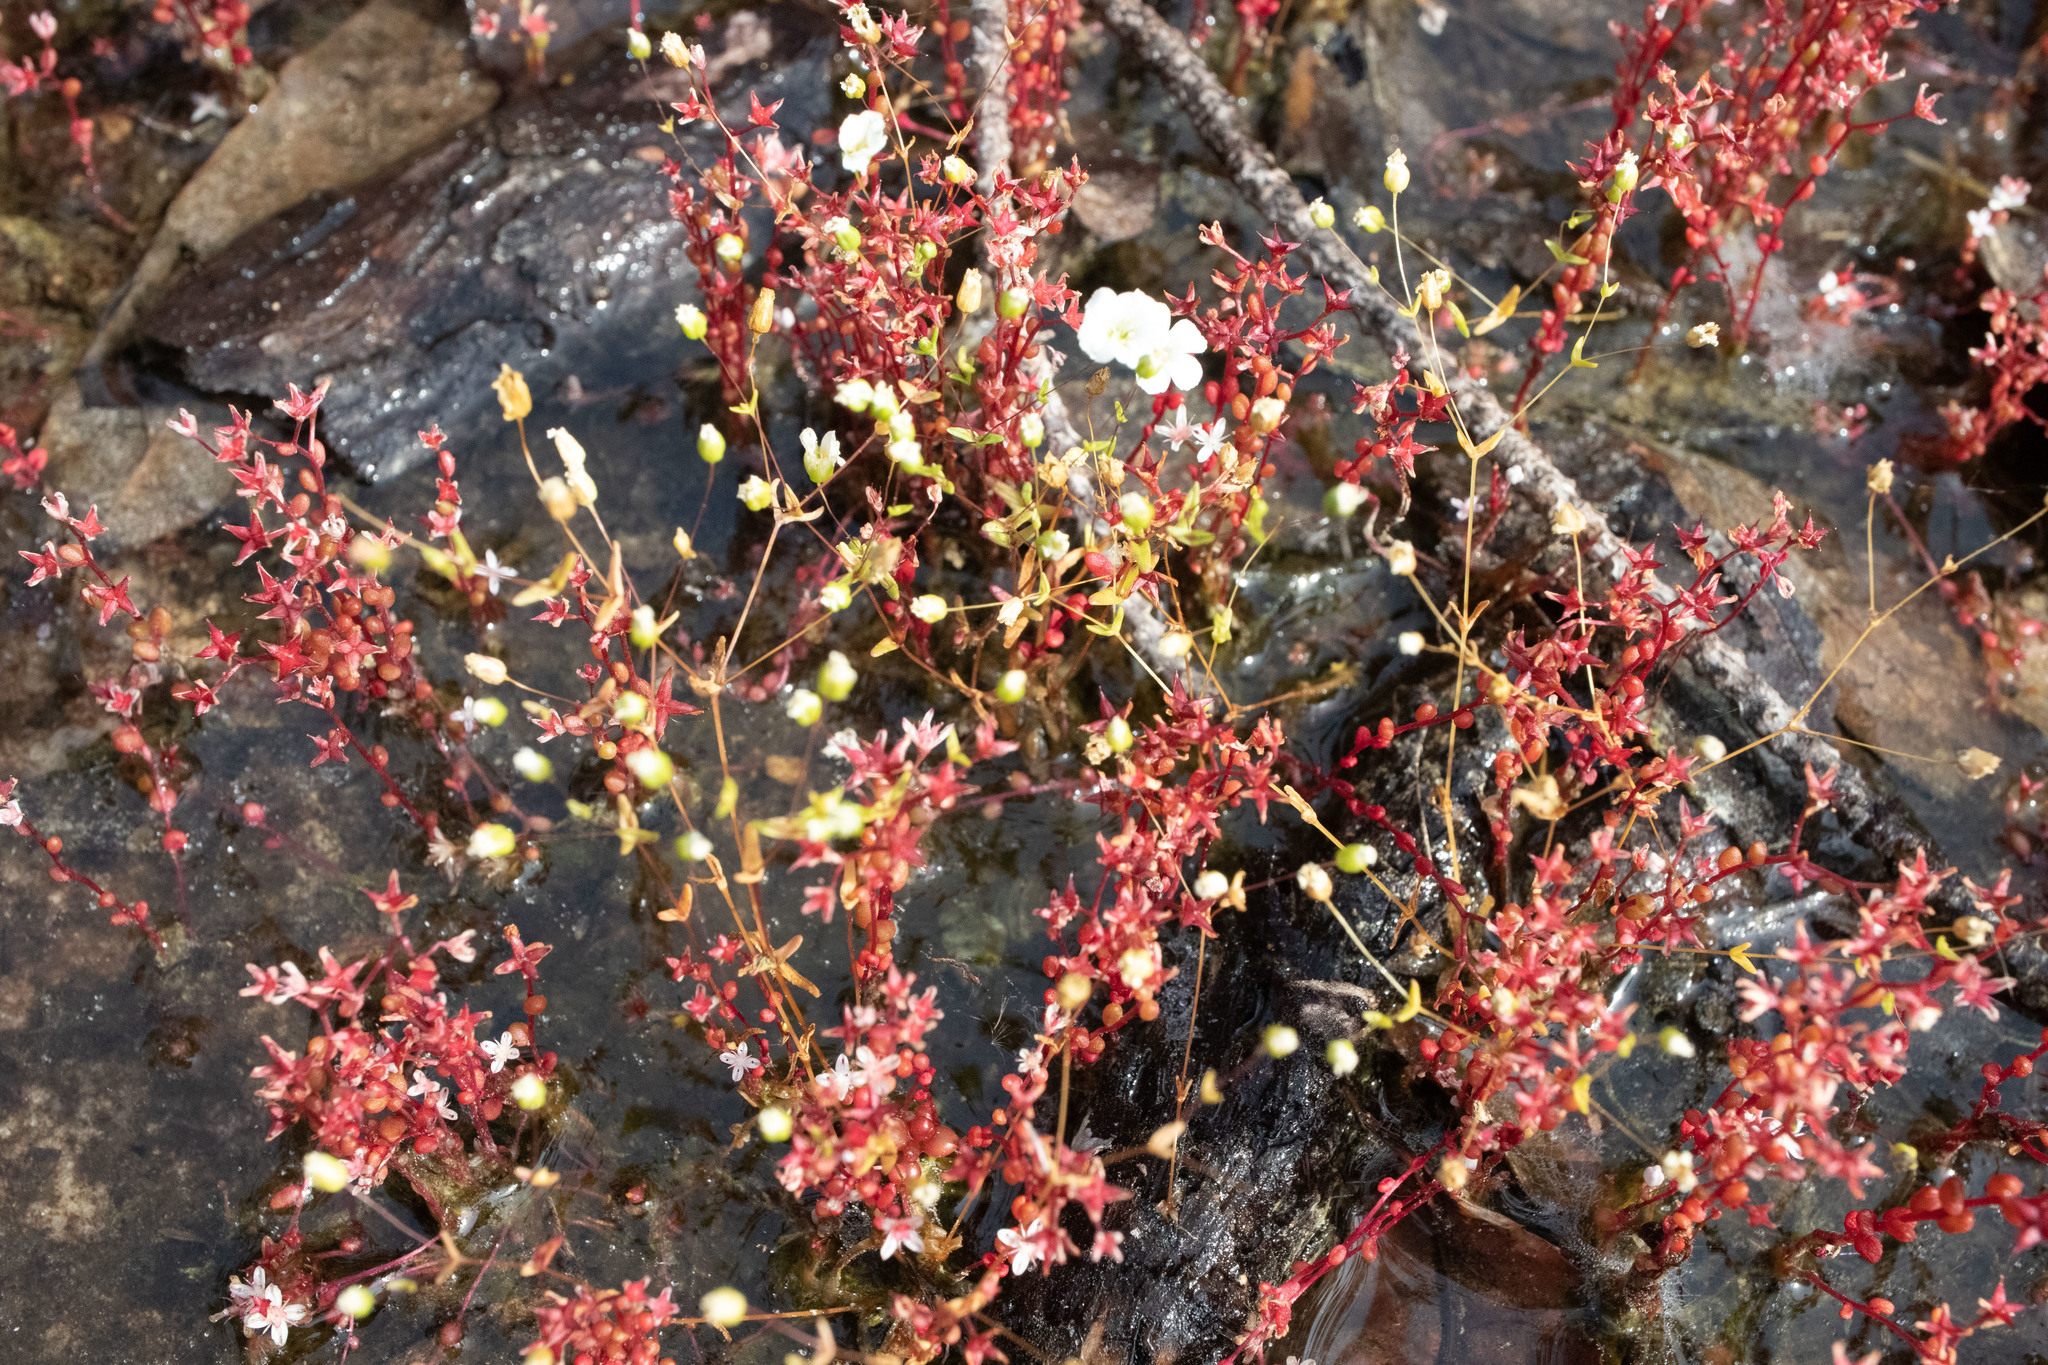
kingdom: Plantae
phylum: Tracheophyta
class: Magnoliopsida
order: Saxifragales
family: Crassulaceae
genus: Sedum
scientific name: Sedum smallii
